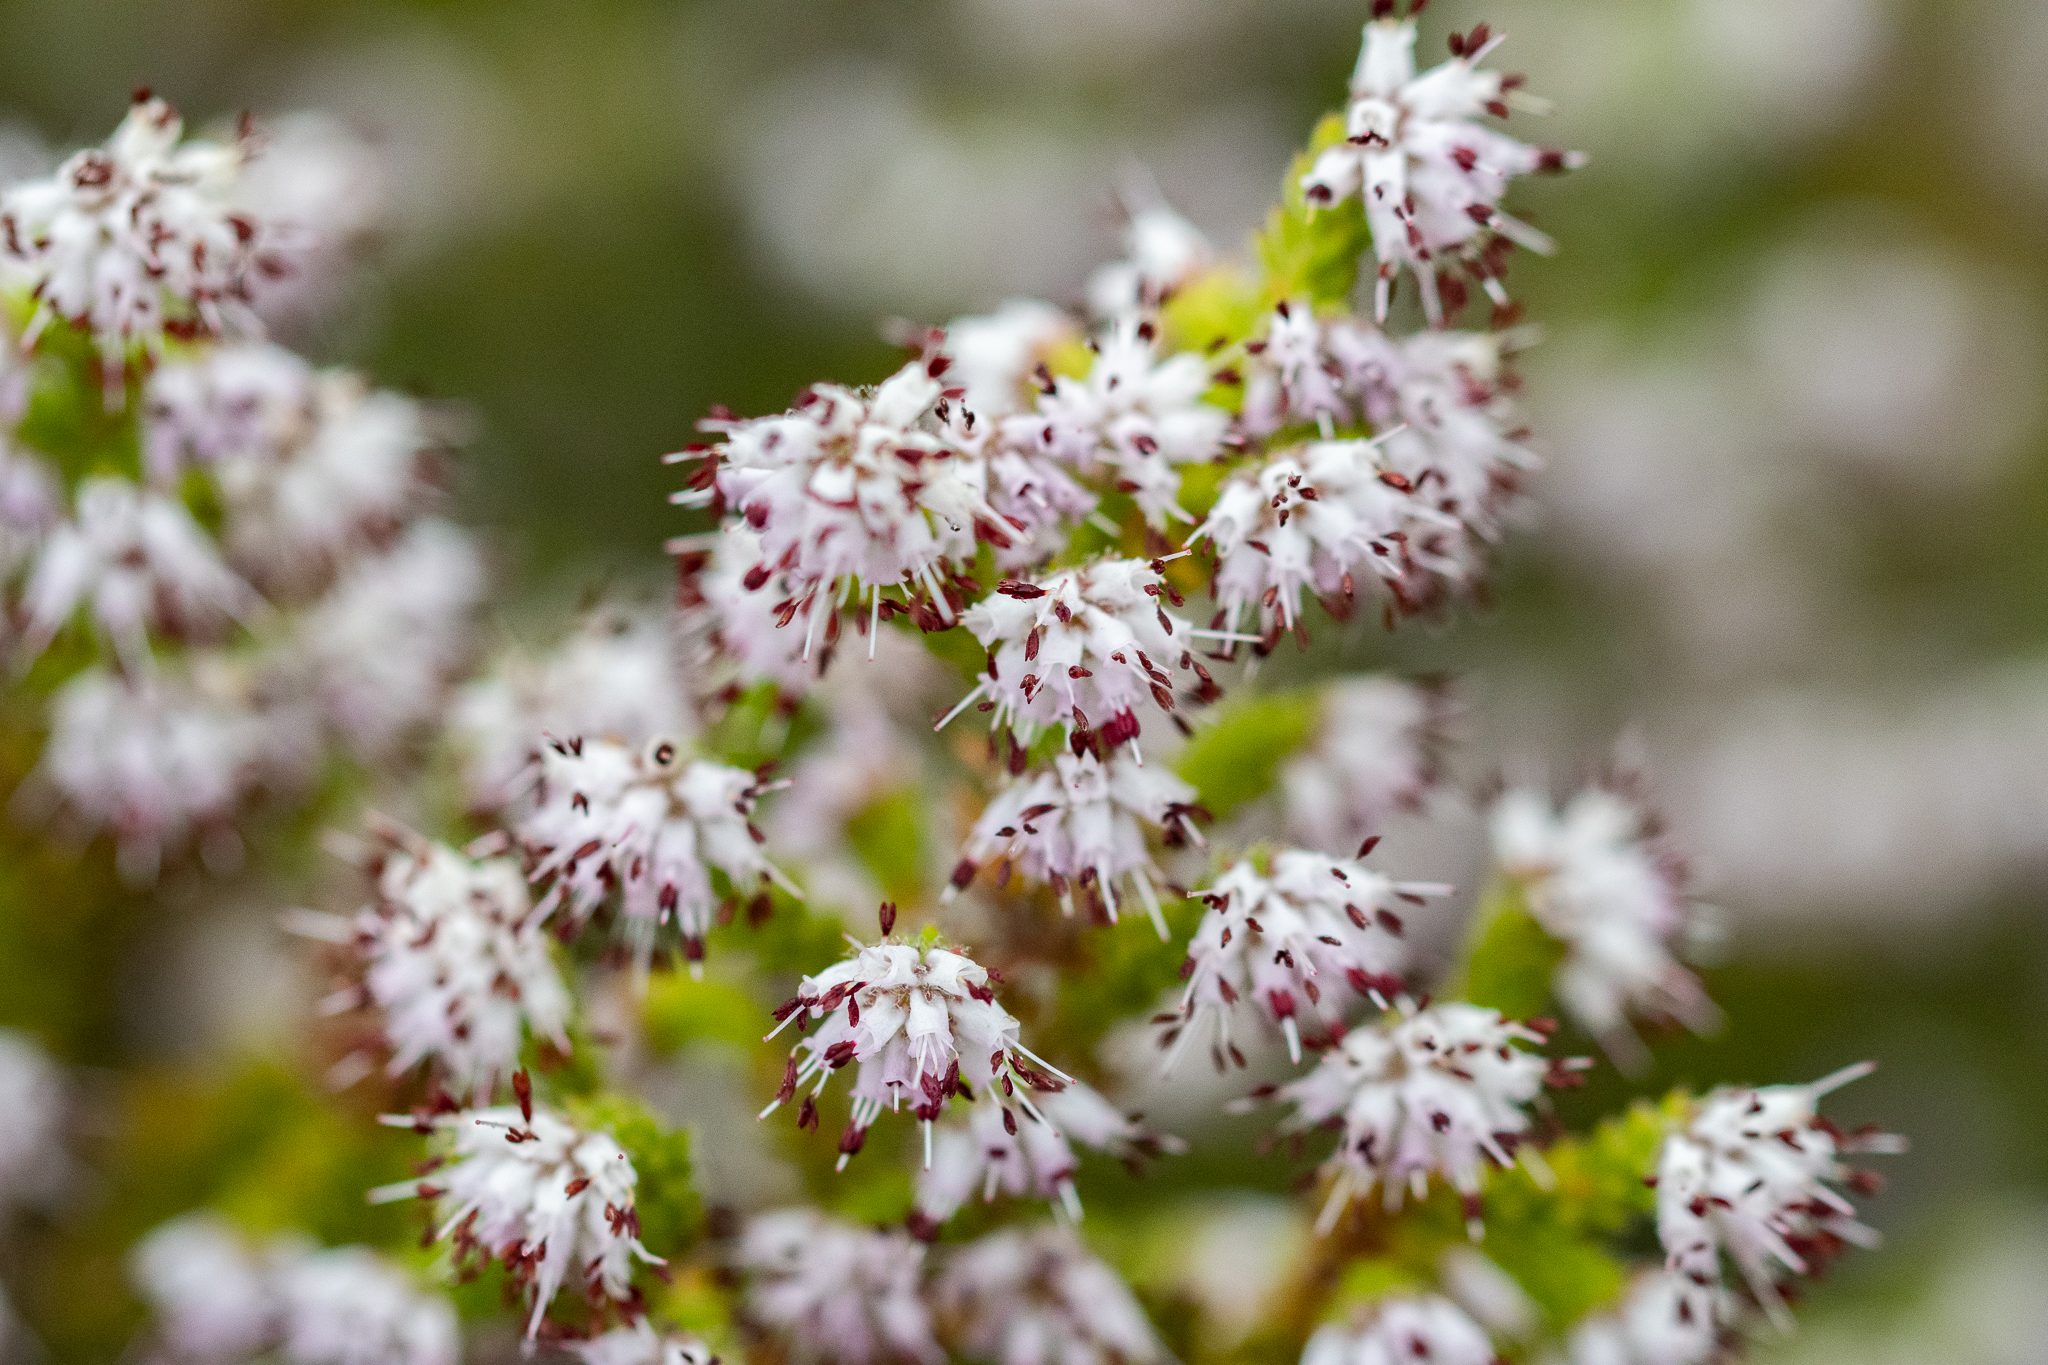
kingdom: Plantae
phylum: Tracheophyta
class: Magnoliopsida
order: Ericales
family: Ericaceae
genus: Erica
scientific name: Erica ericoides
